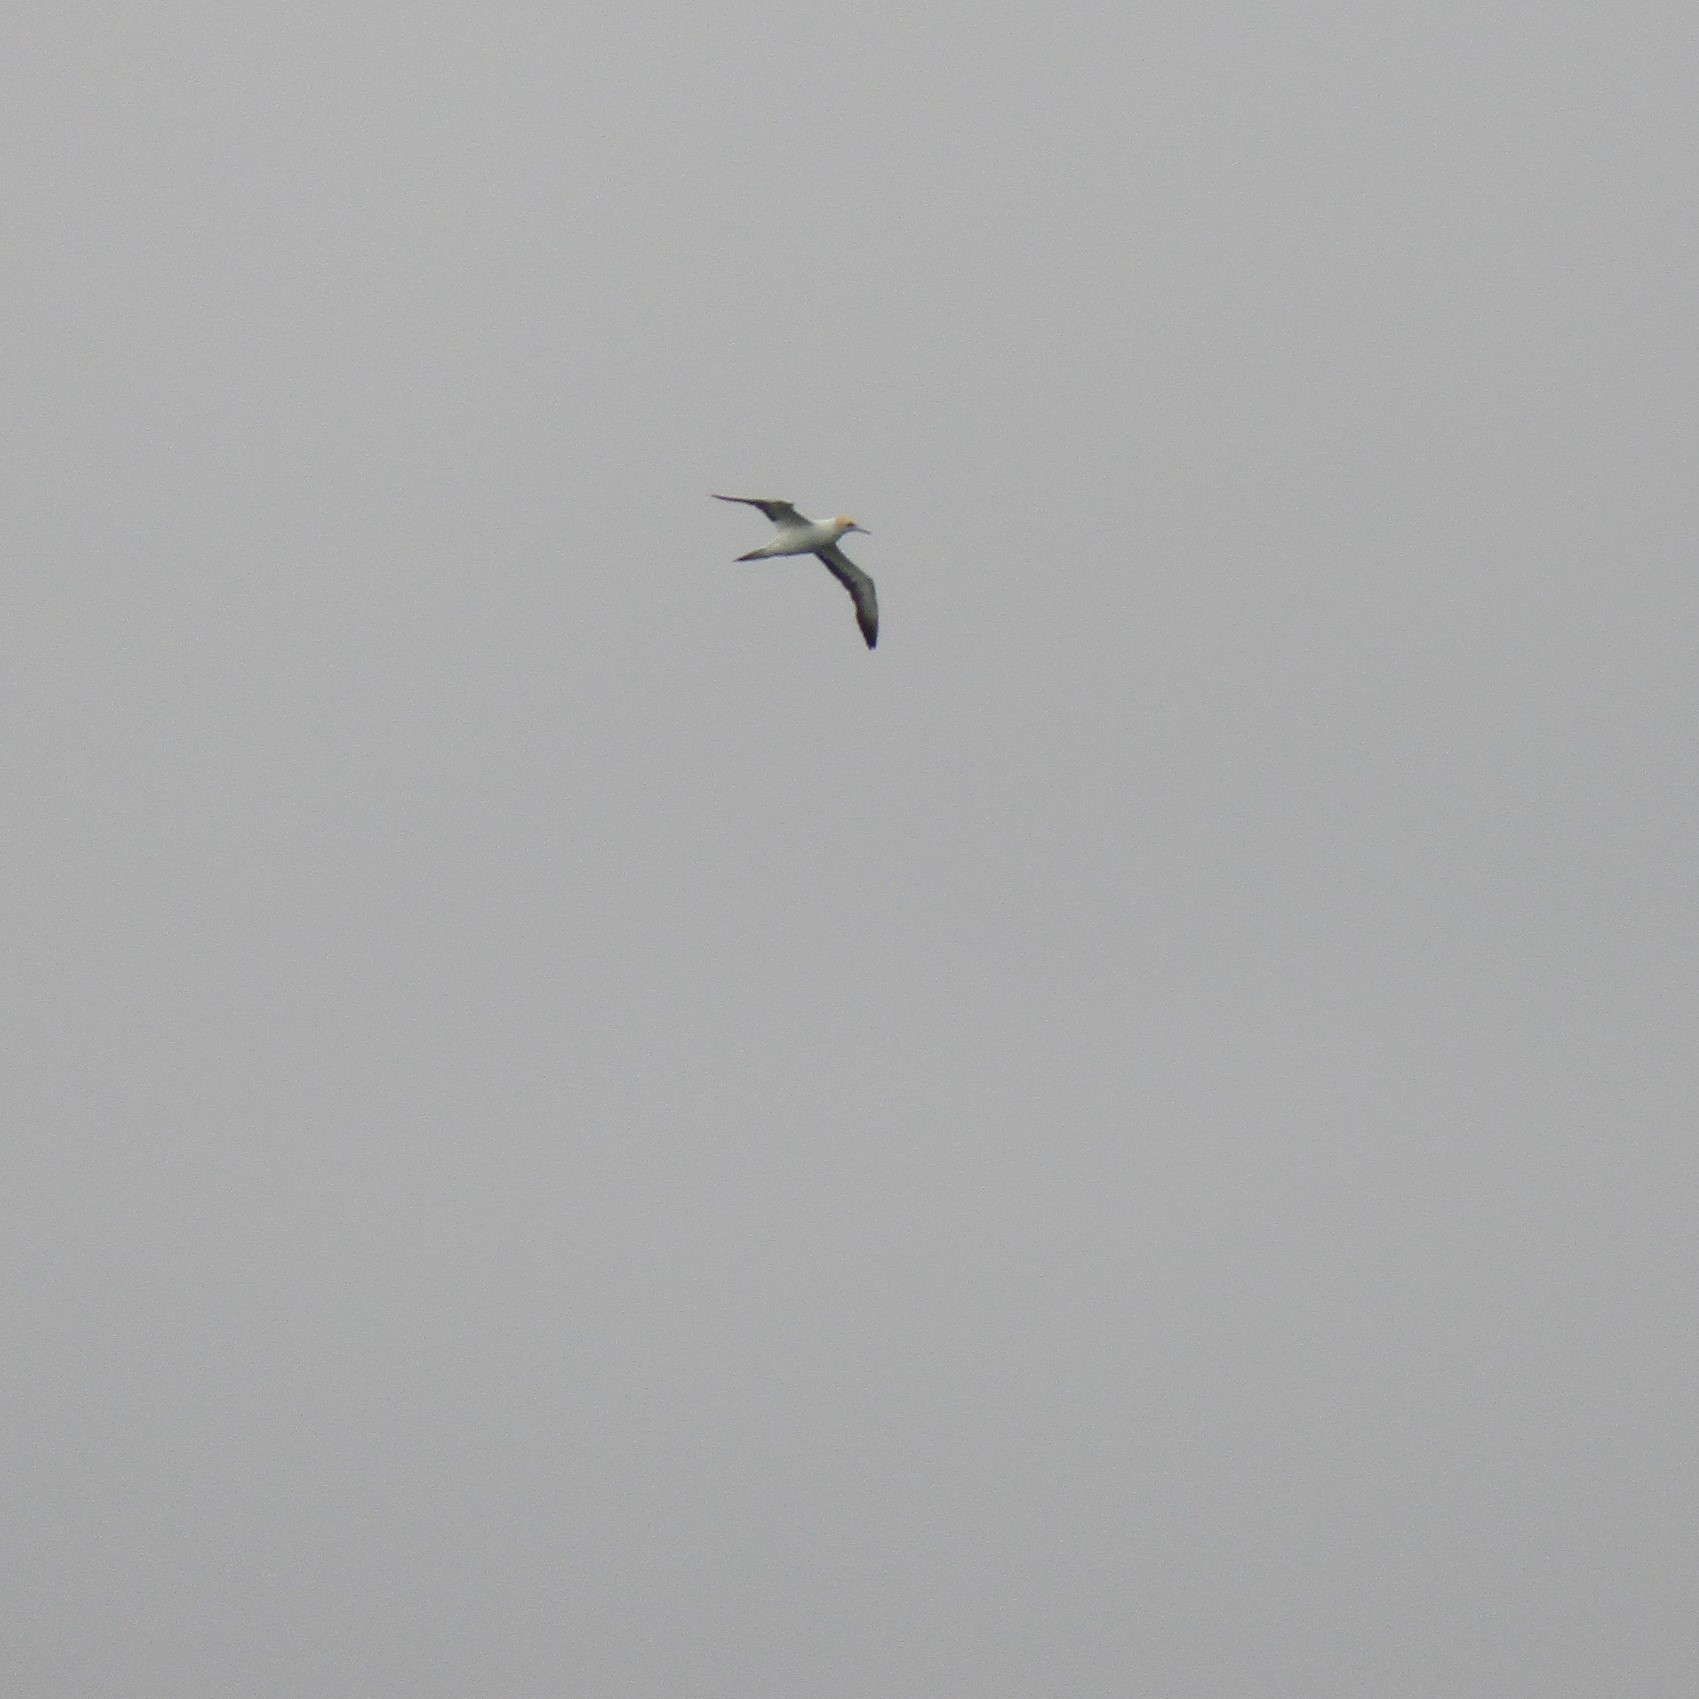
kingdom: Animalia
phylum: Chordata
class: Aves
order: Suliformes
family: Sulidae
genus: Morus
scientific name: Morus serrator
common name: Australasian gannet
